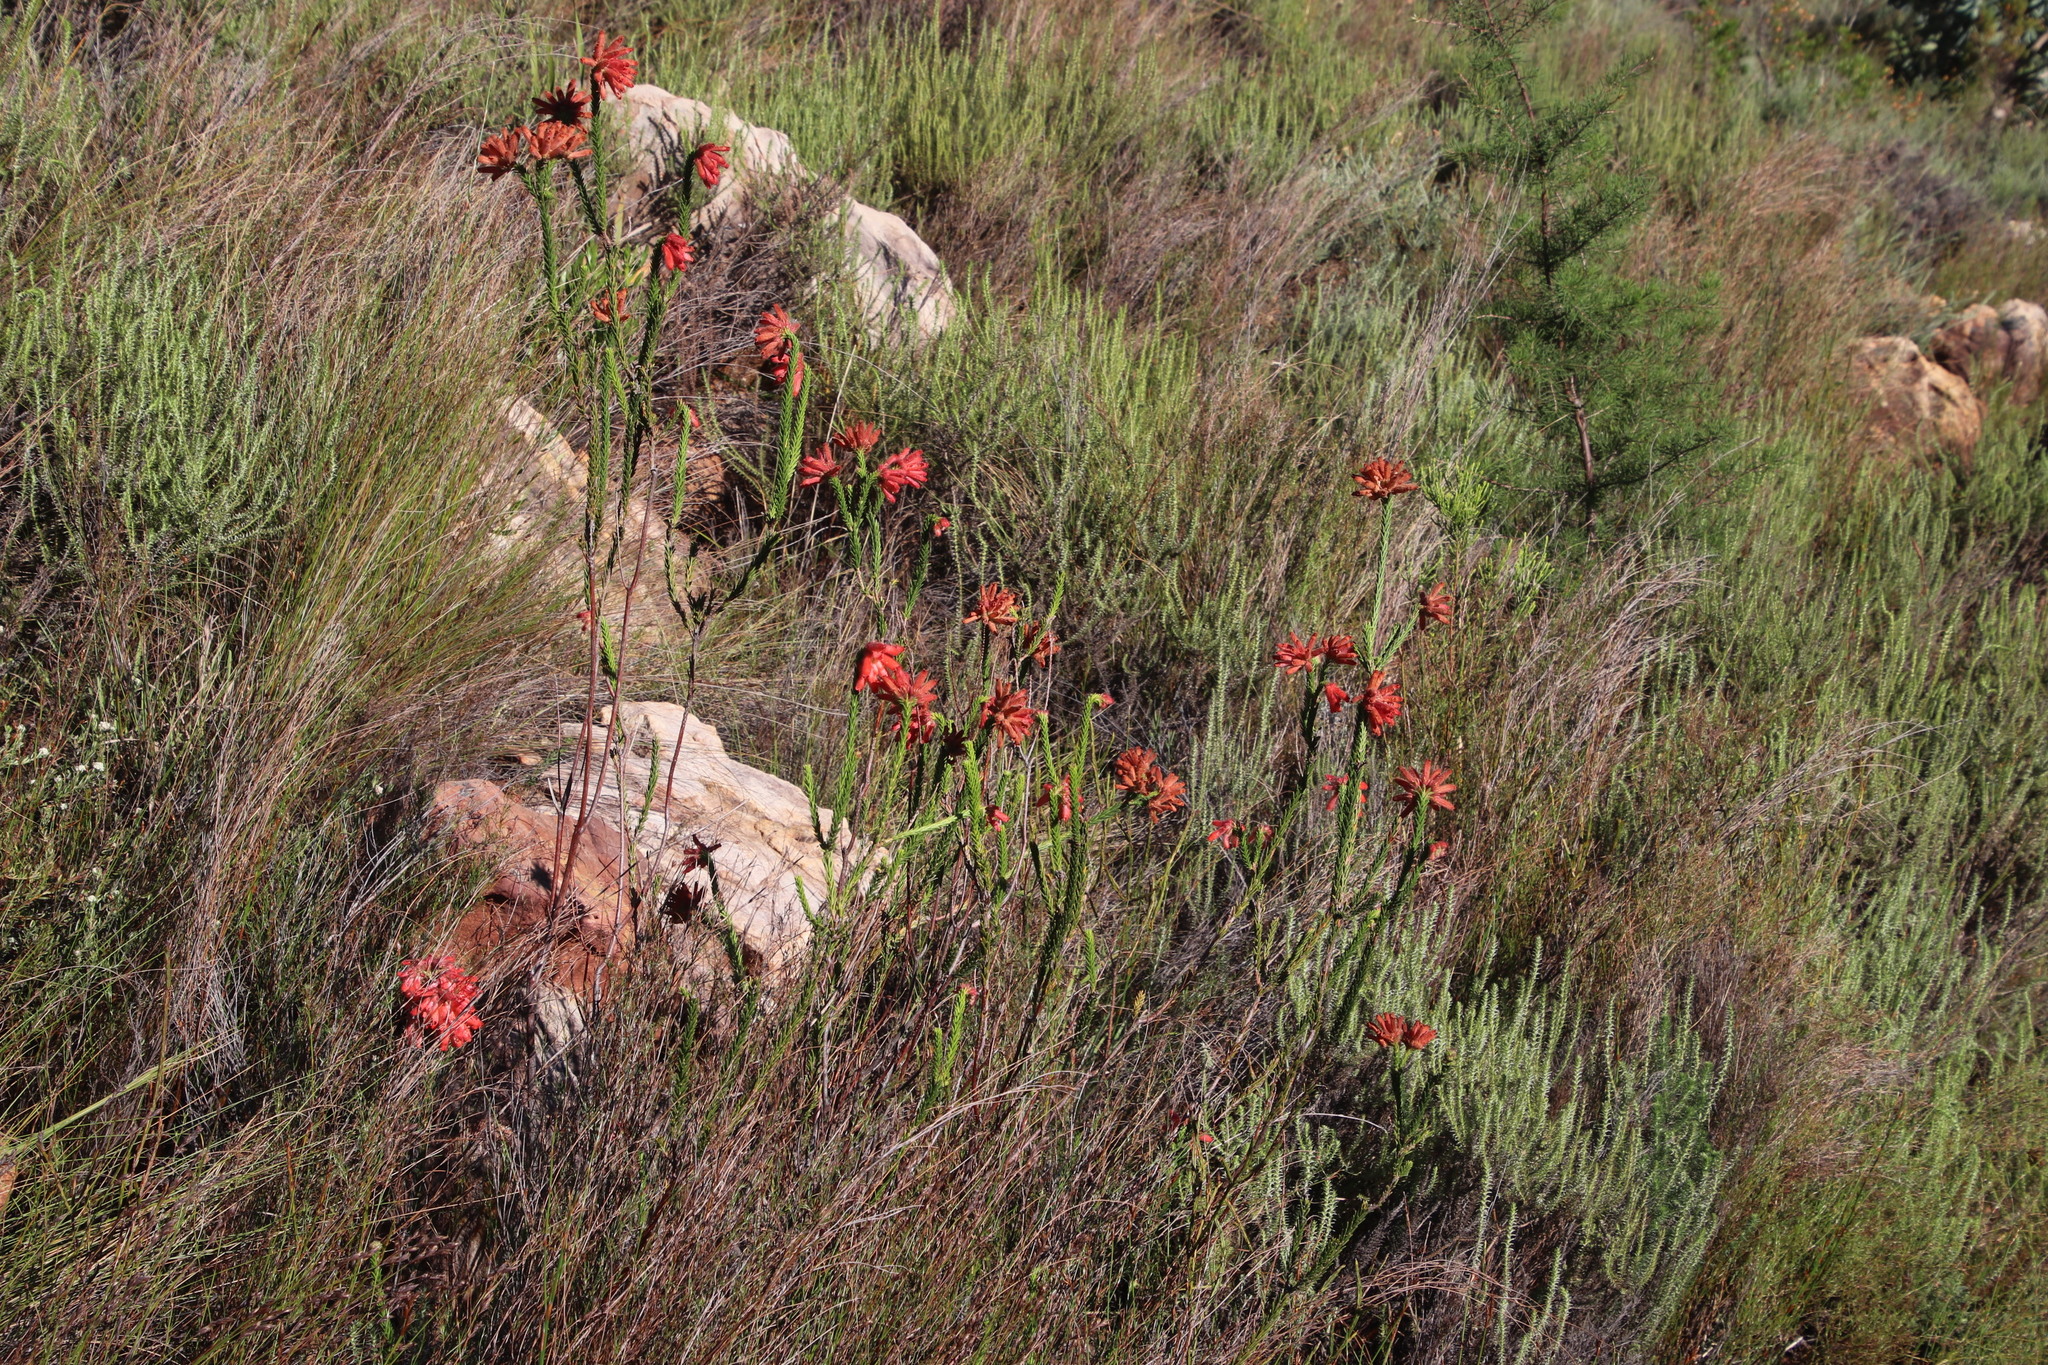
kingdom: Plantae
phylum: Tracheophyta
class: Magnoliopsida
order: Ericales
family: Ericaceae
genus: Erica
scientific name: Erica cerinthoides
